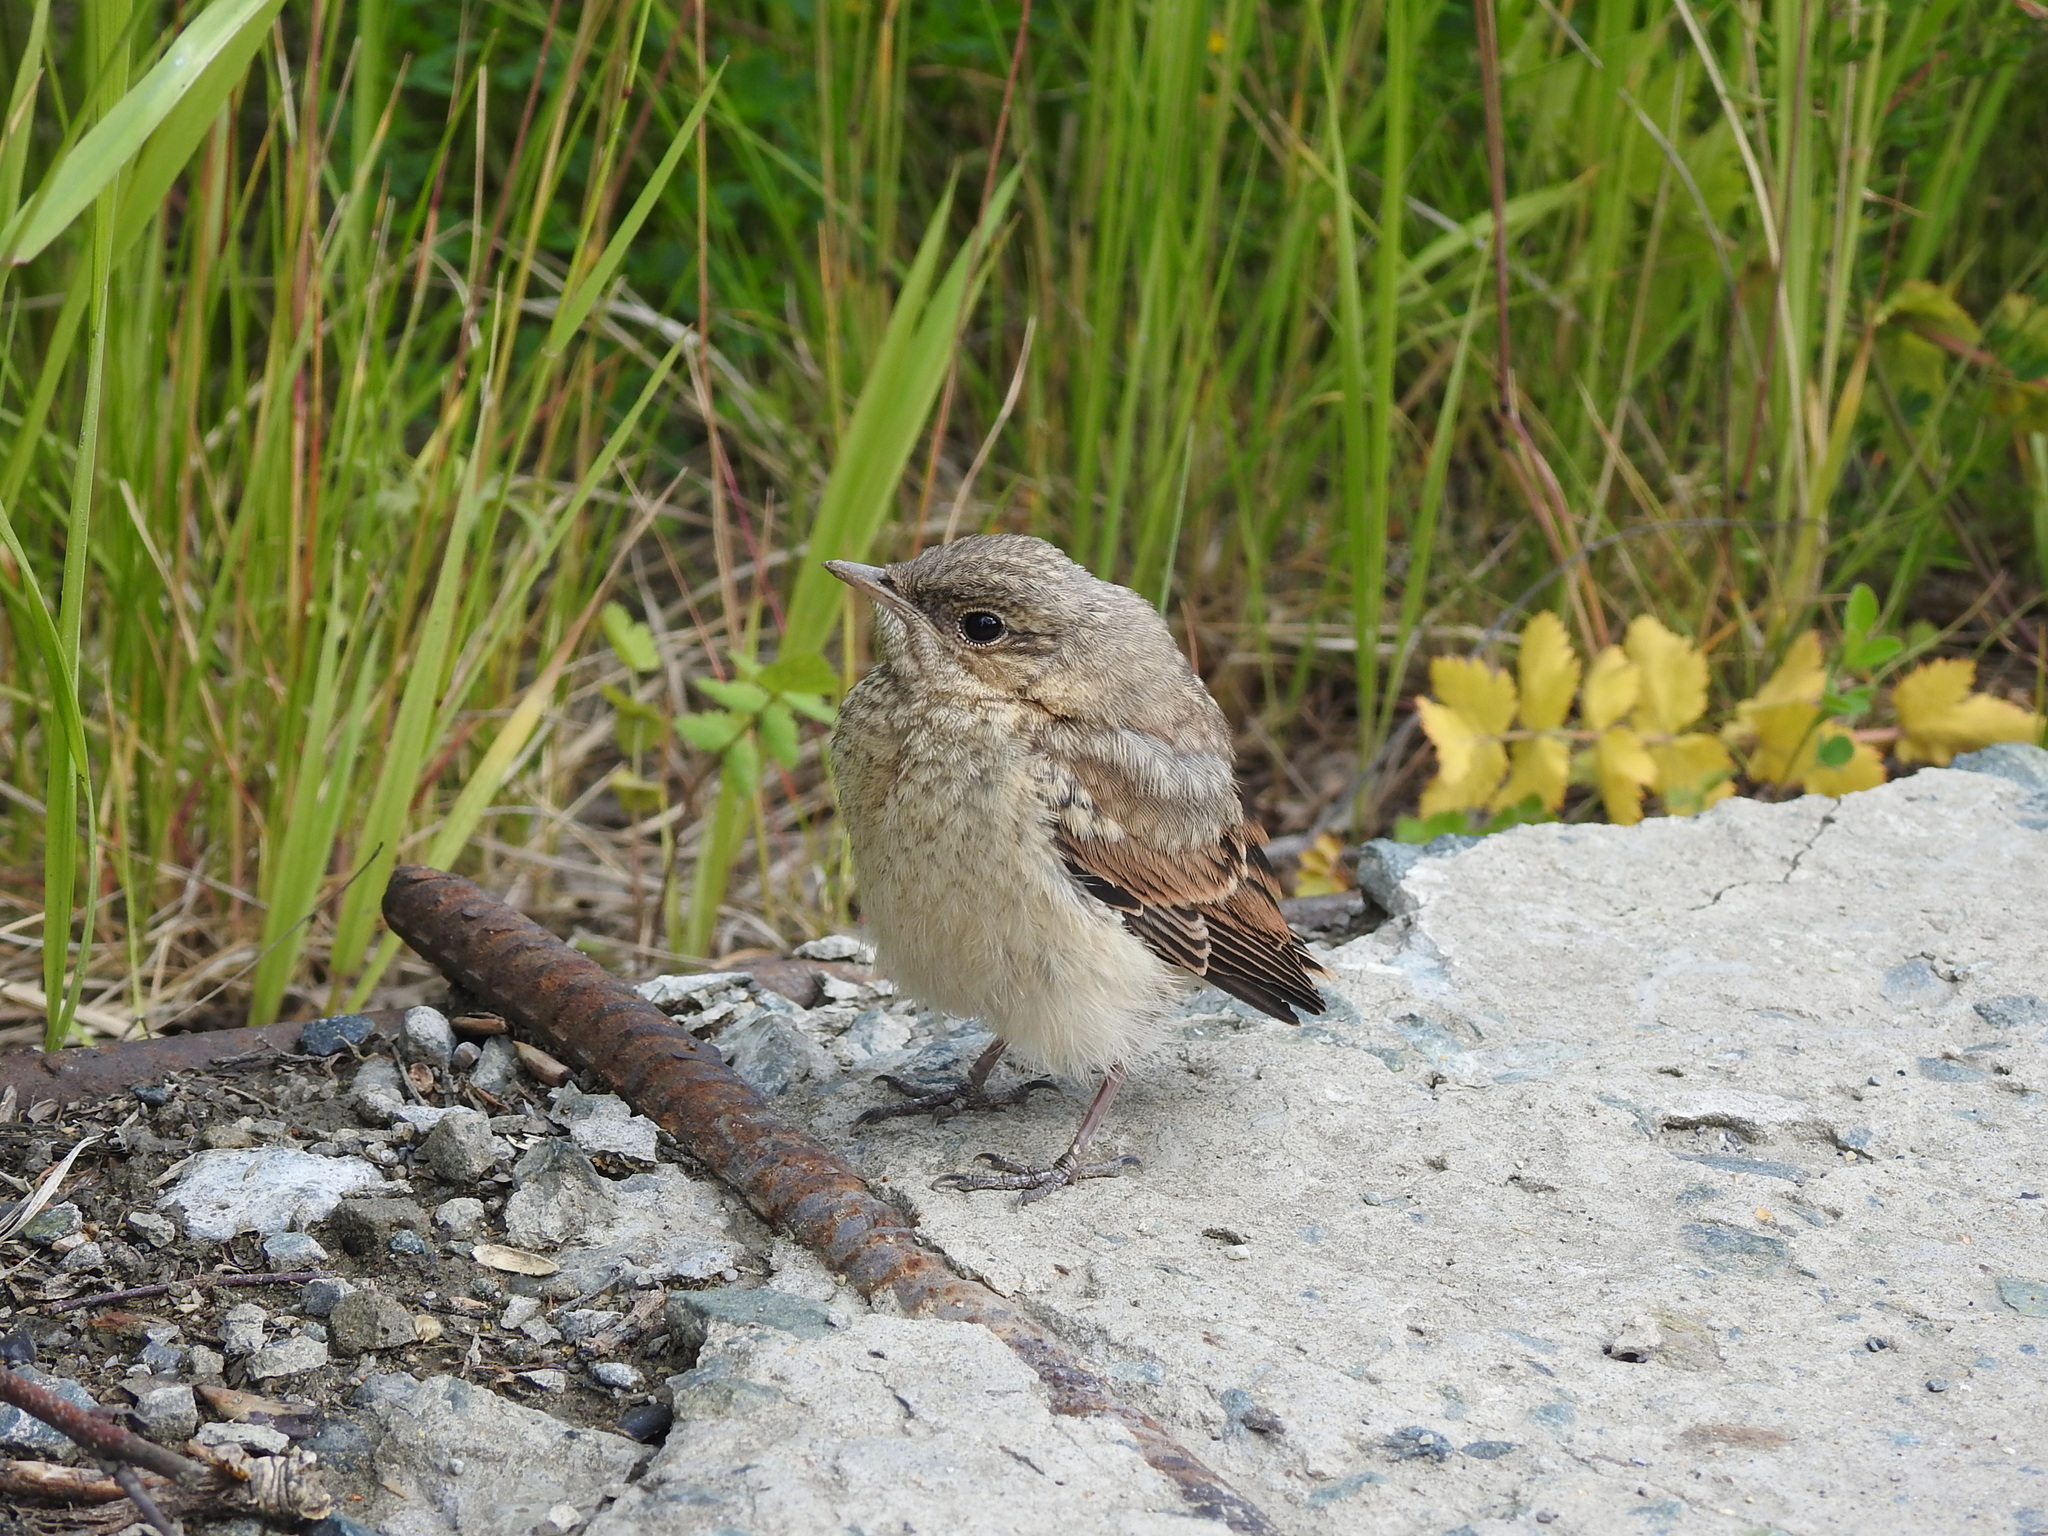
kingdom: Animalia
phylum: Chordata
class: Aves
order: Passeriformes
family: Muscicapidae
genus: Oenanthe
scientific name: Oenanthe oenanthe
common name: Northern wheatear
